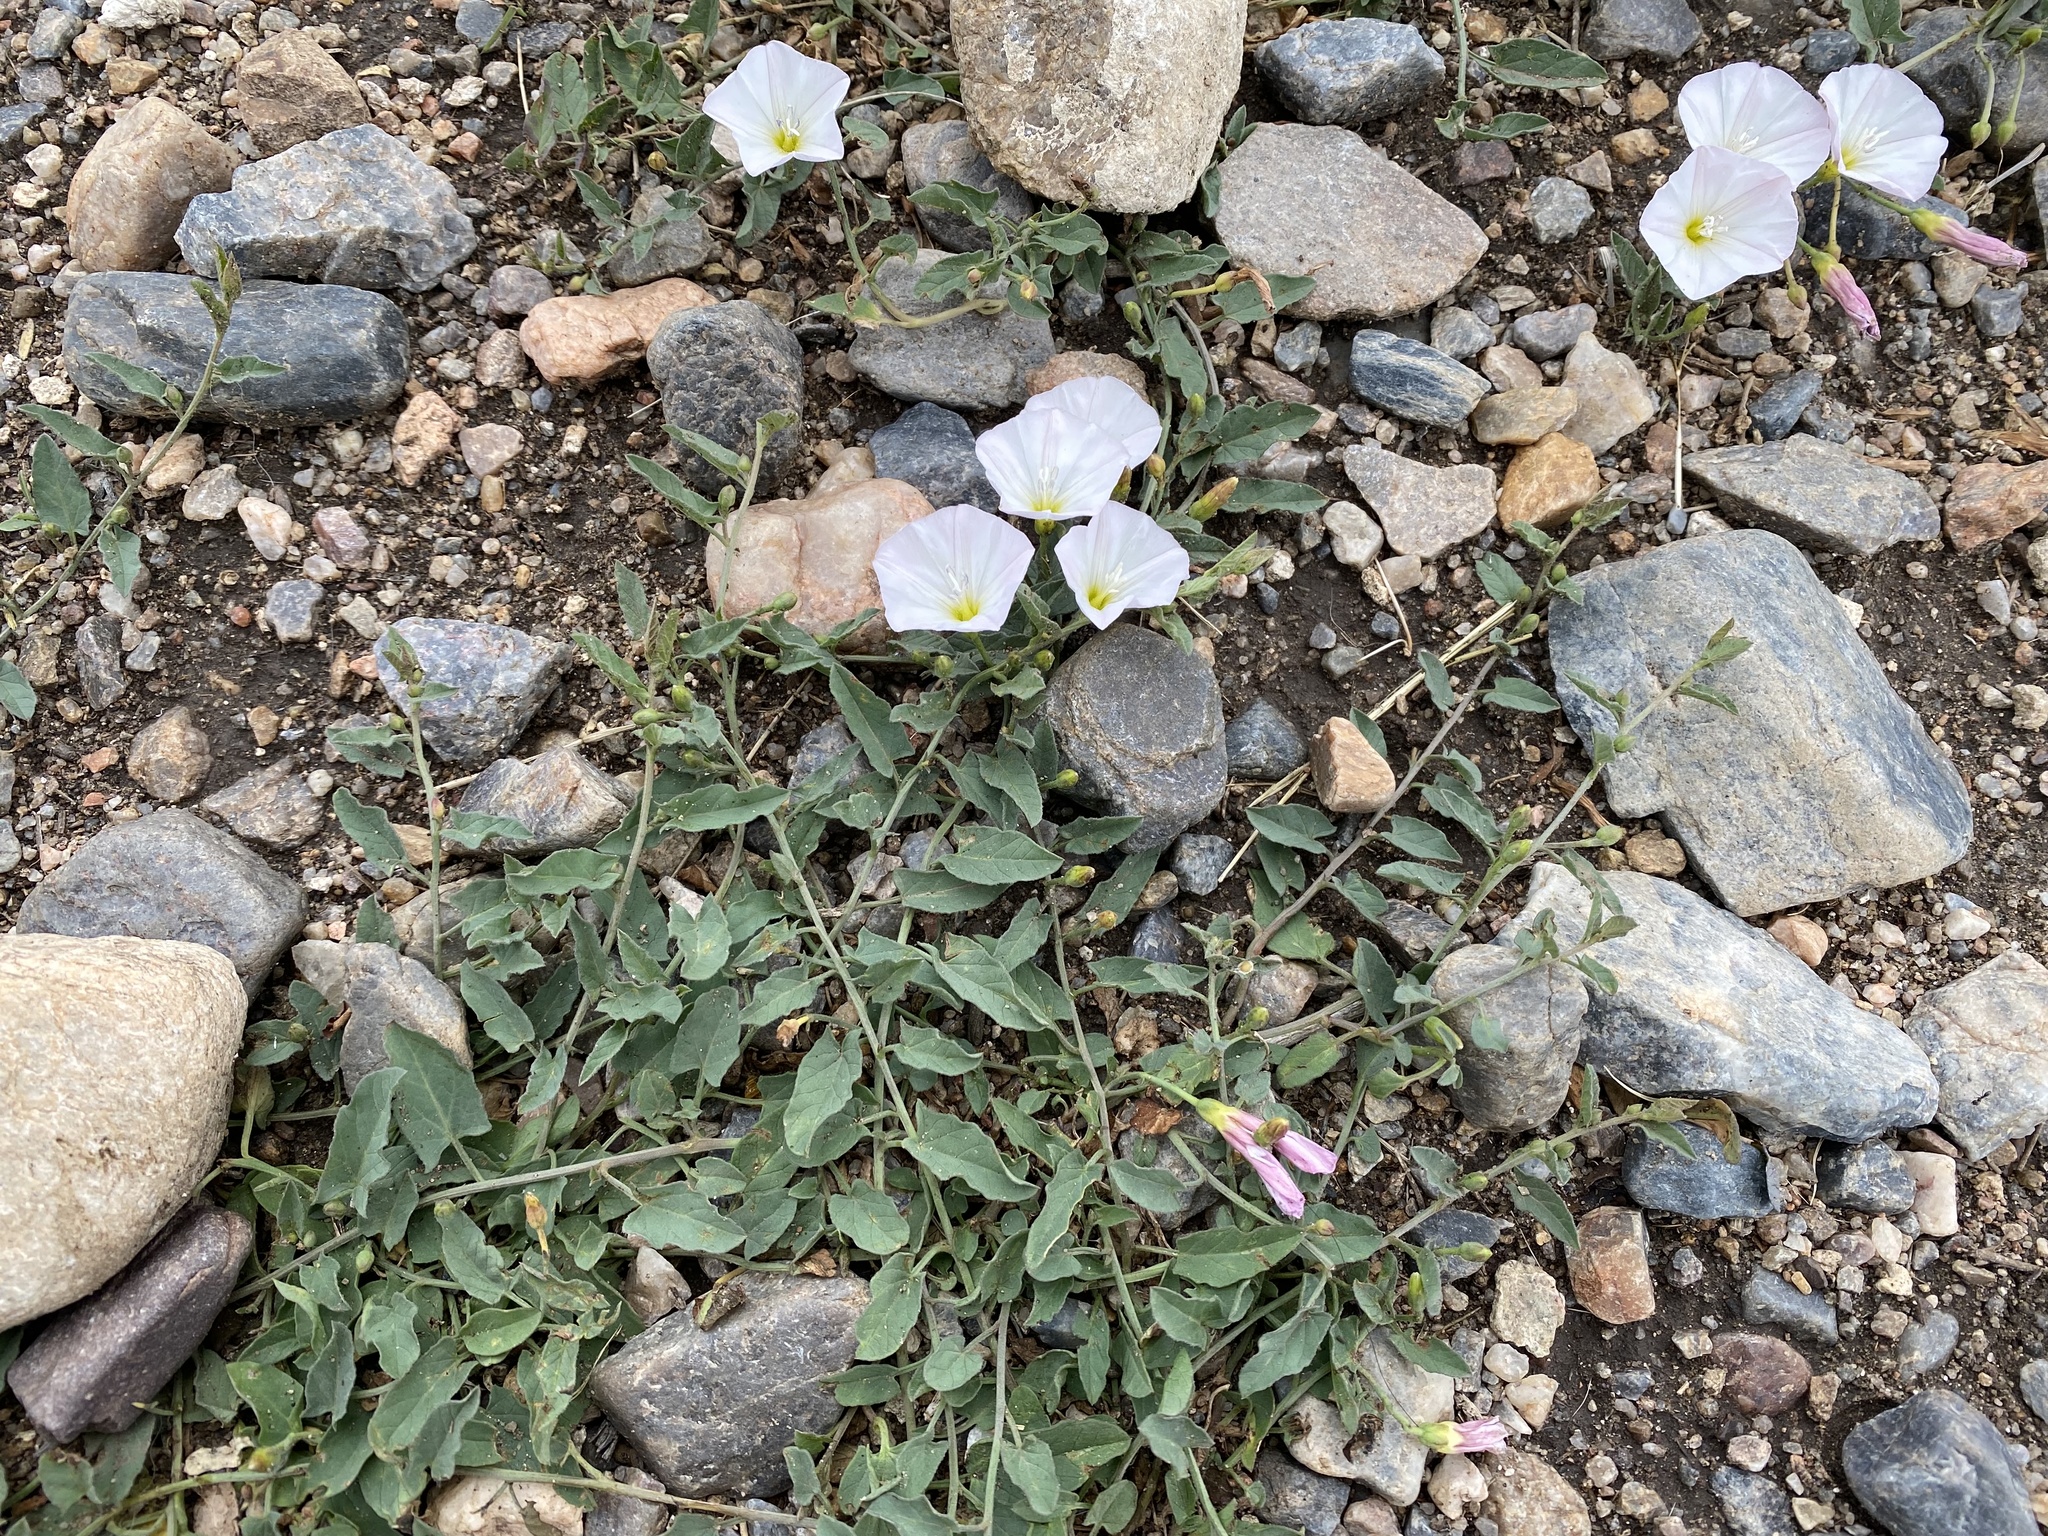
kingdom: Plantae
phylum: Tracheophyta
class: Magnoliopsida
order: Solanales
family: Convolvulaceae
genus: Convolvulus
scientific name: Convolvulus arvensis
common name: Field bindweed
